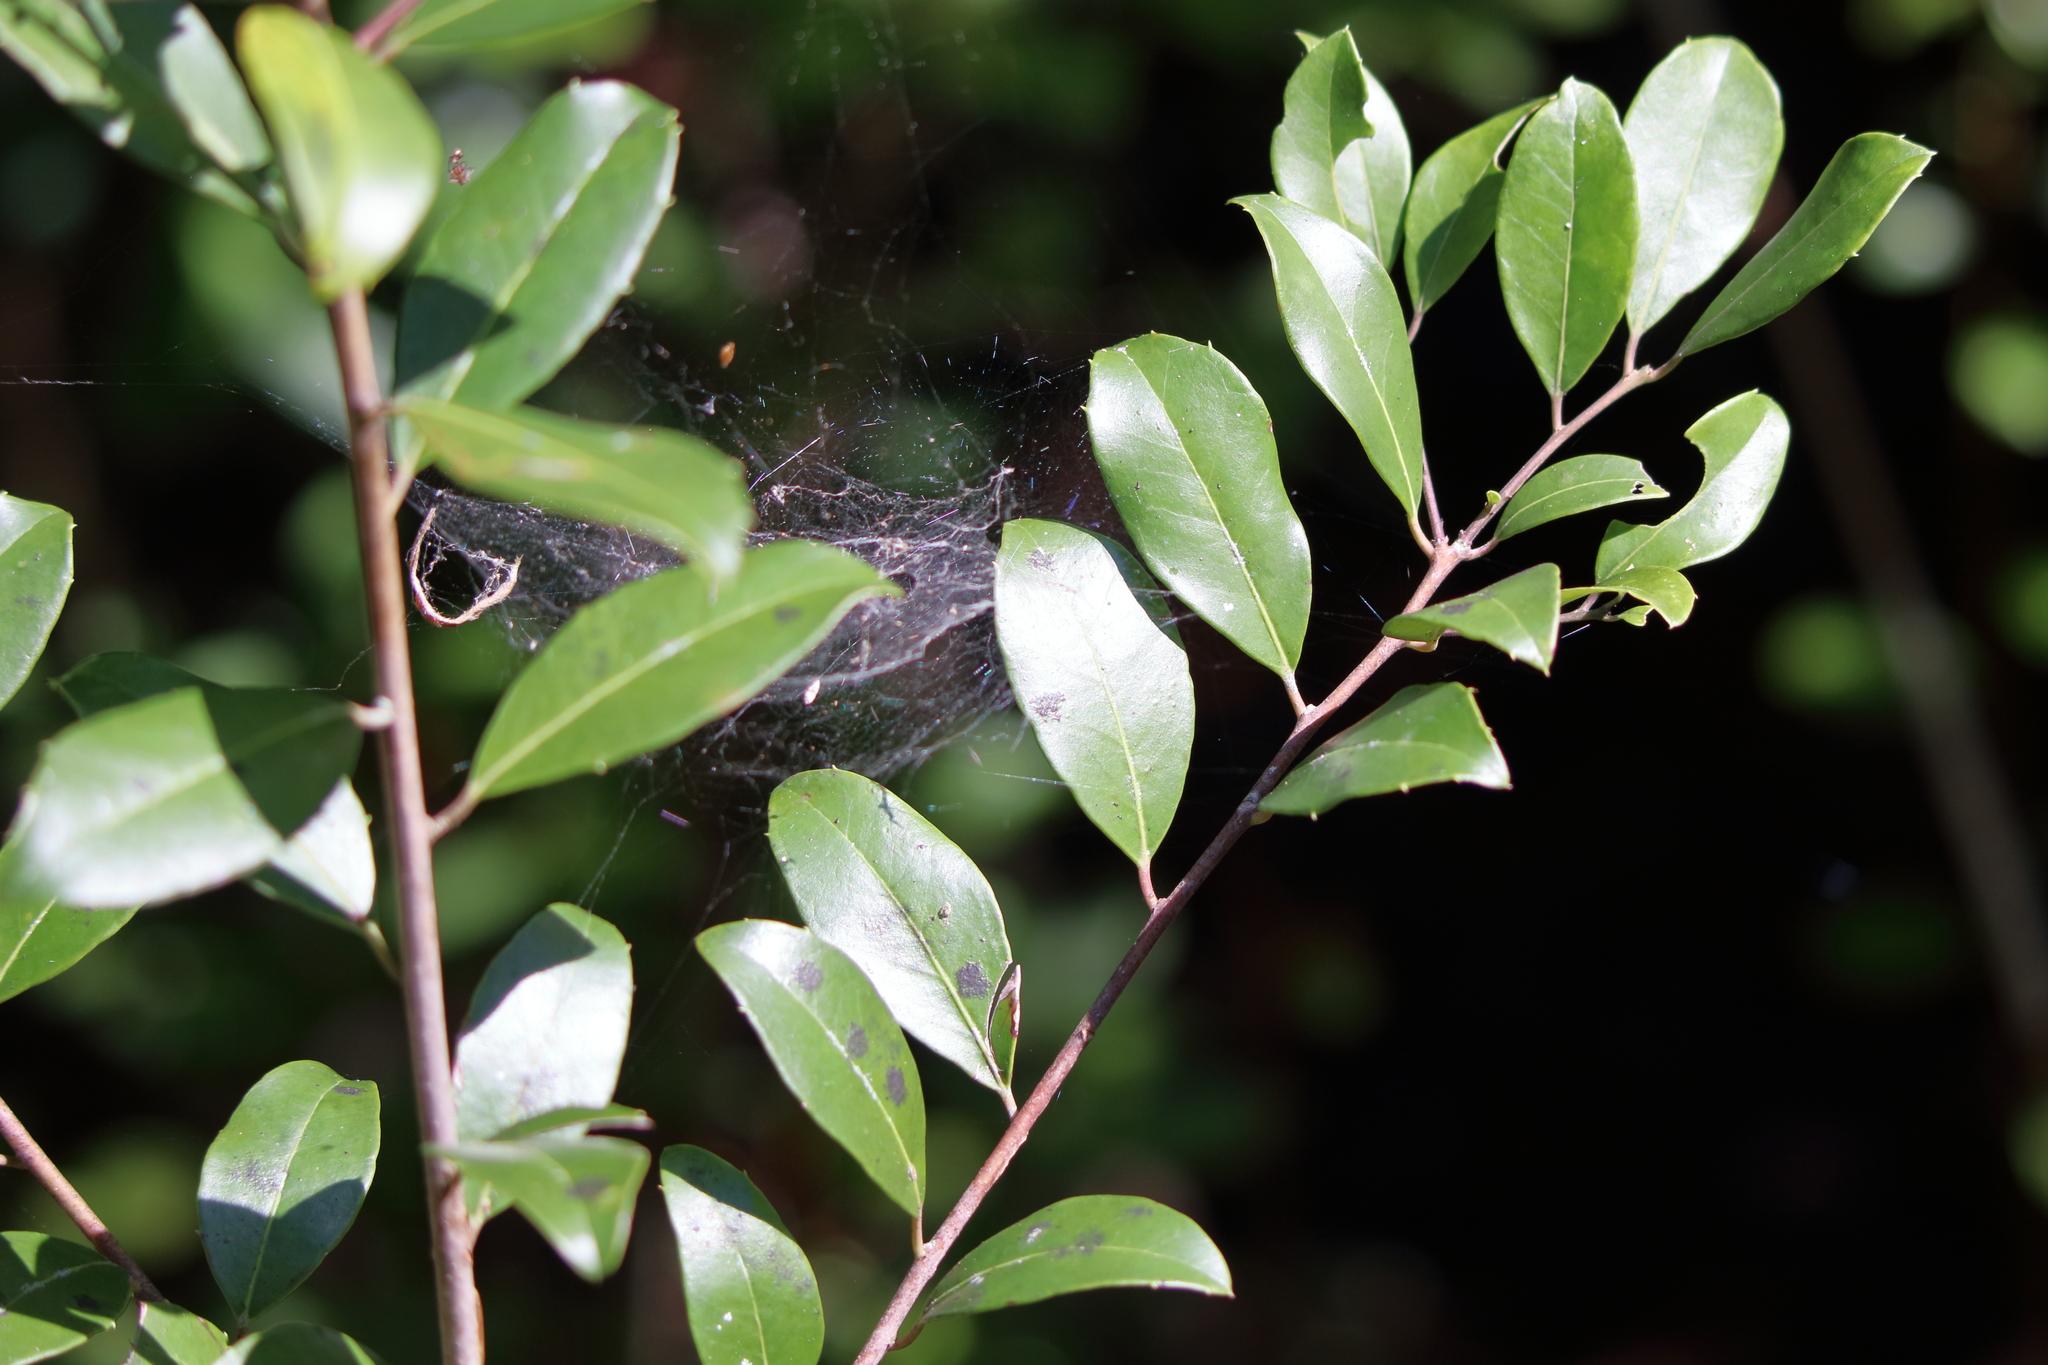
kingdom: Plantae
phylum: Tracheophyta
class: Magnoliopsida
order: Aquifoliales
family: Aquifoliaceae
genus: Ilex
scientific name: Ilex coriacea
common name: Sweet gallberry
